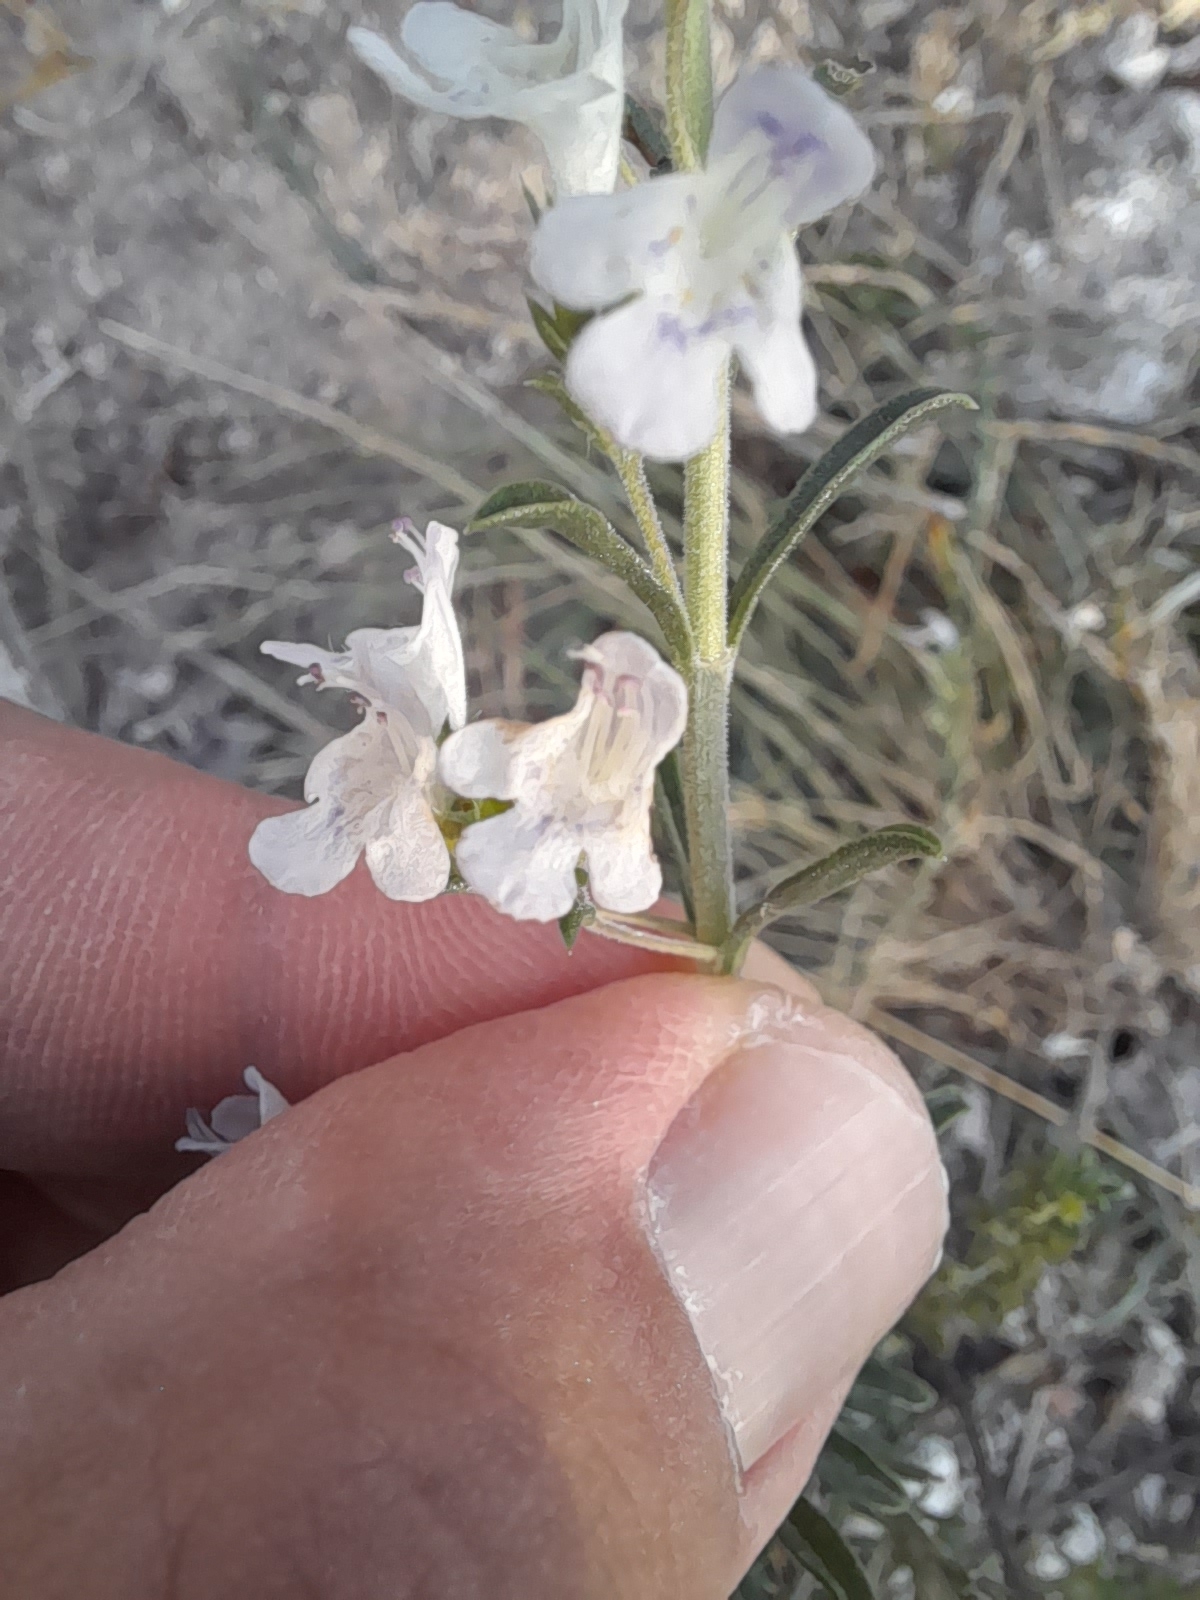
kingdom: Plantae
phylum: Tracheophyta
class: Magnoliopsida
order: Lamiales
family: Lamiaceae
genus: Satureja
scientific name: Satureja montana
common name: Winter savory
